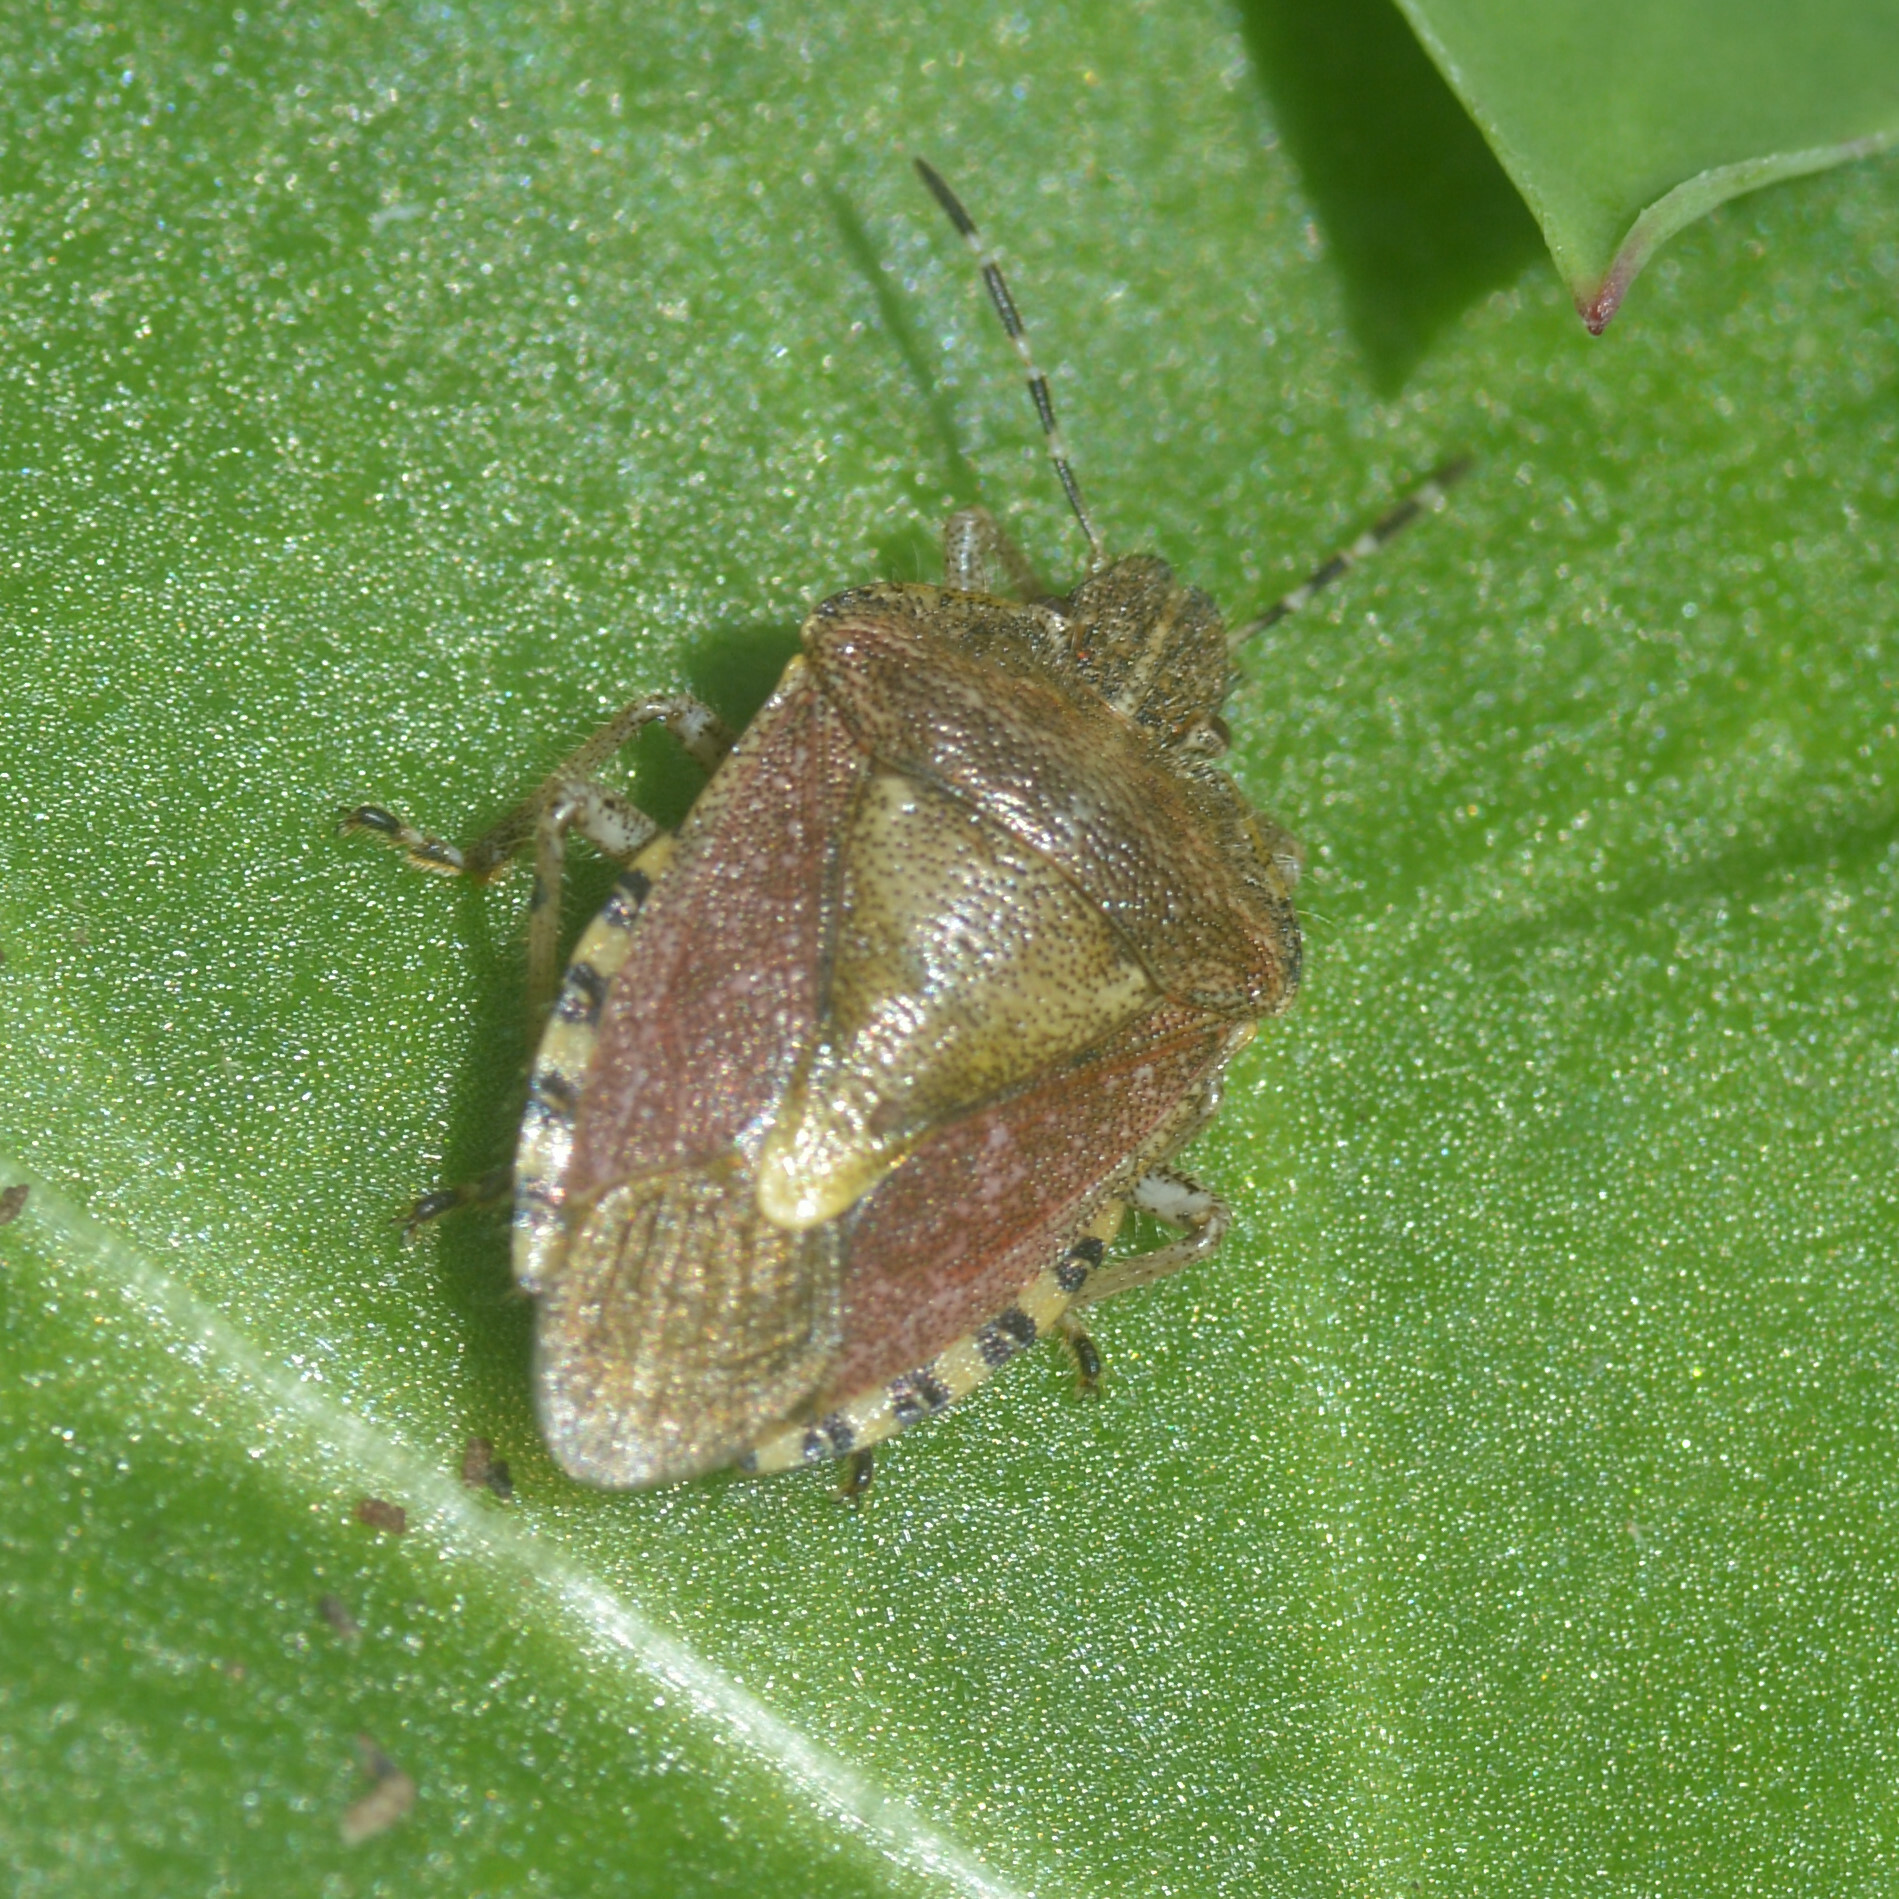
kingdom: Animalia
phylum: Arthropoda
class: Insecta
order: Hemiptera
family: Pentatomidae
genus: Dolycoris
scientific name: Dolycoris baccarum
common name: Sloe bug
